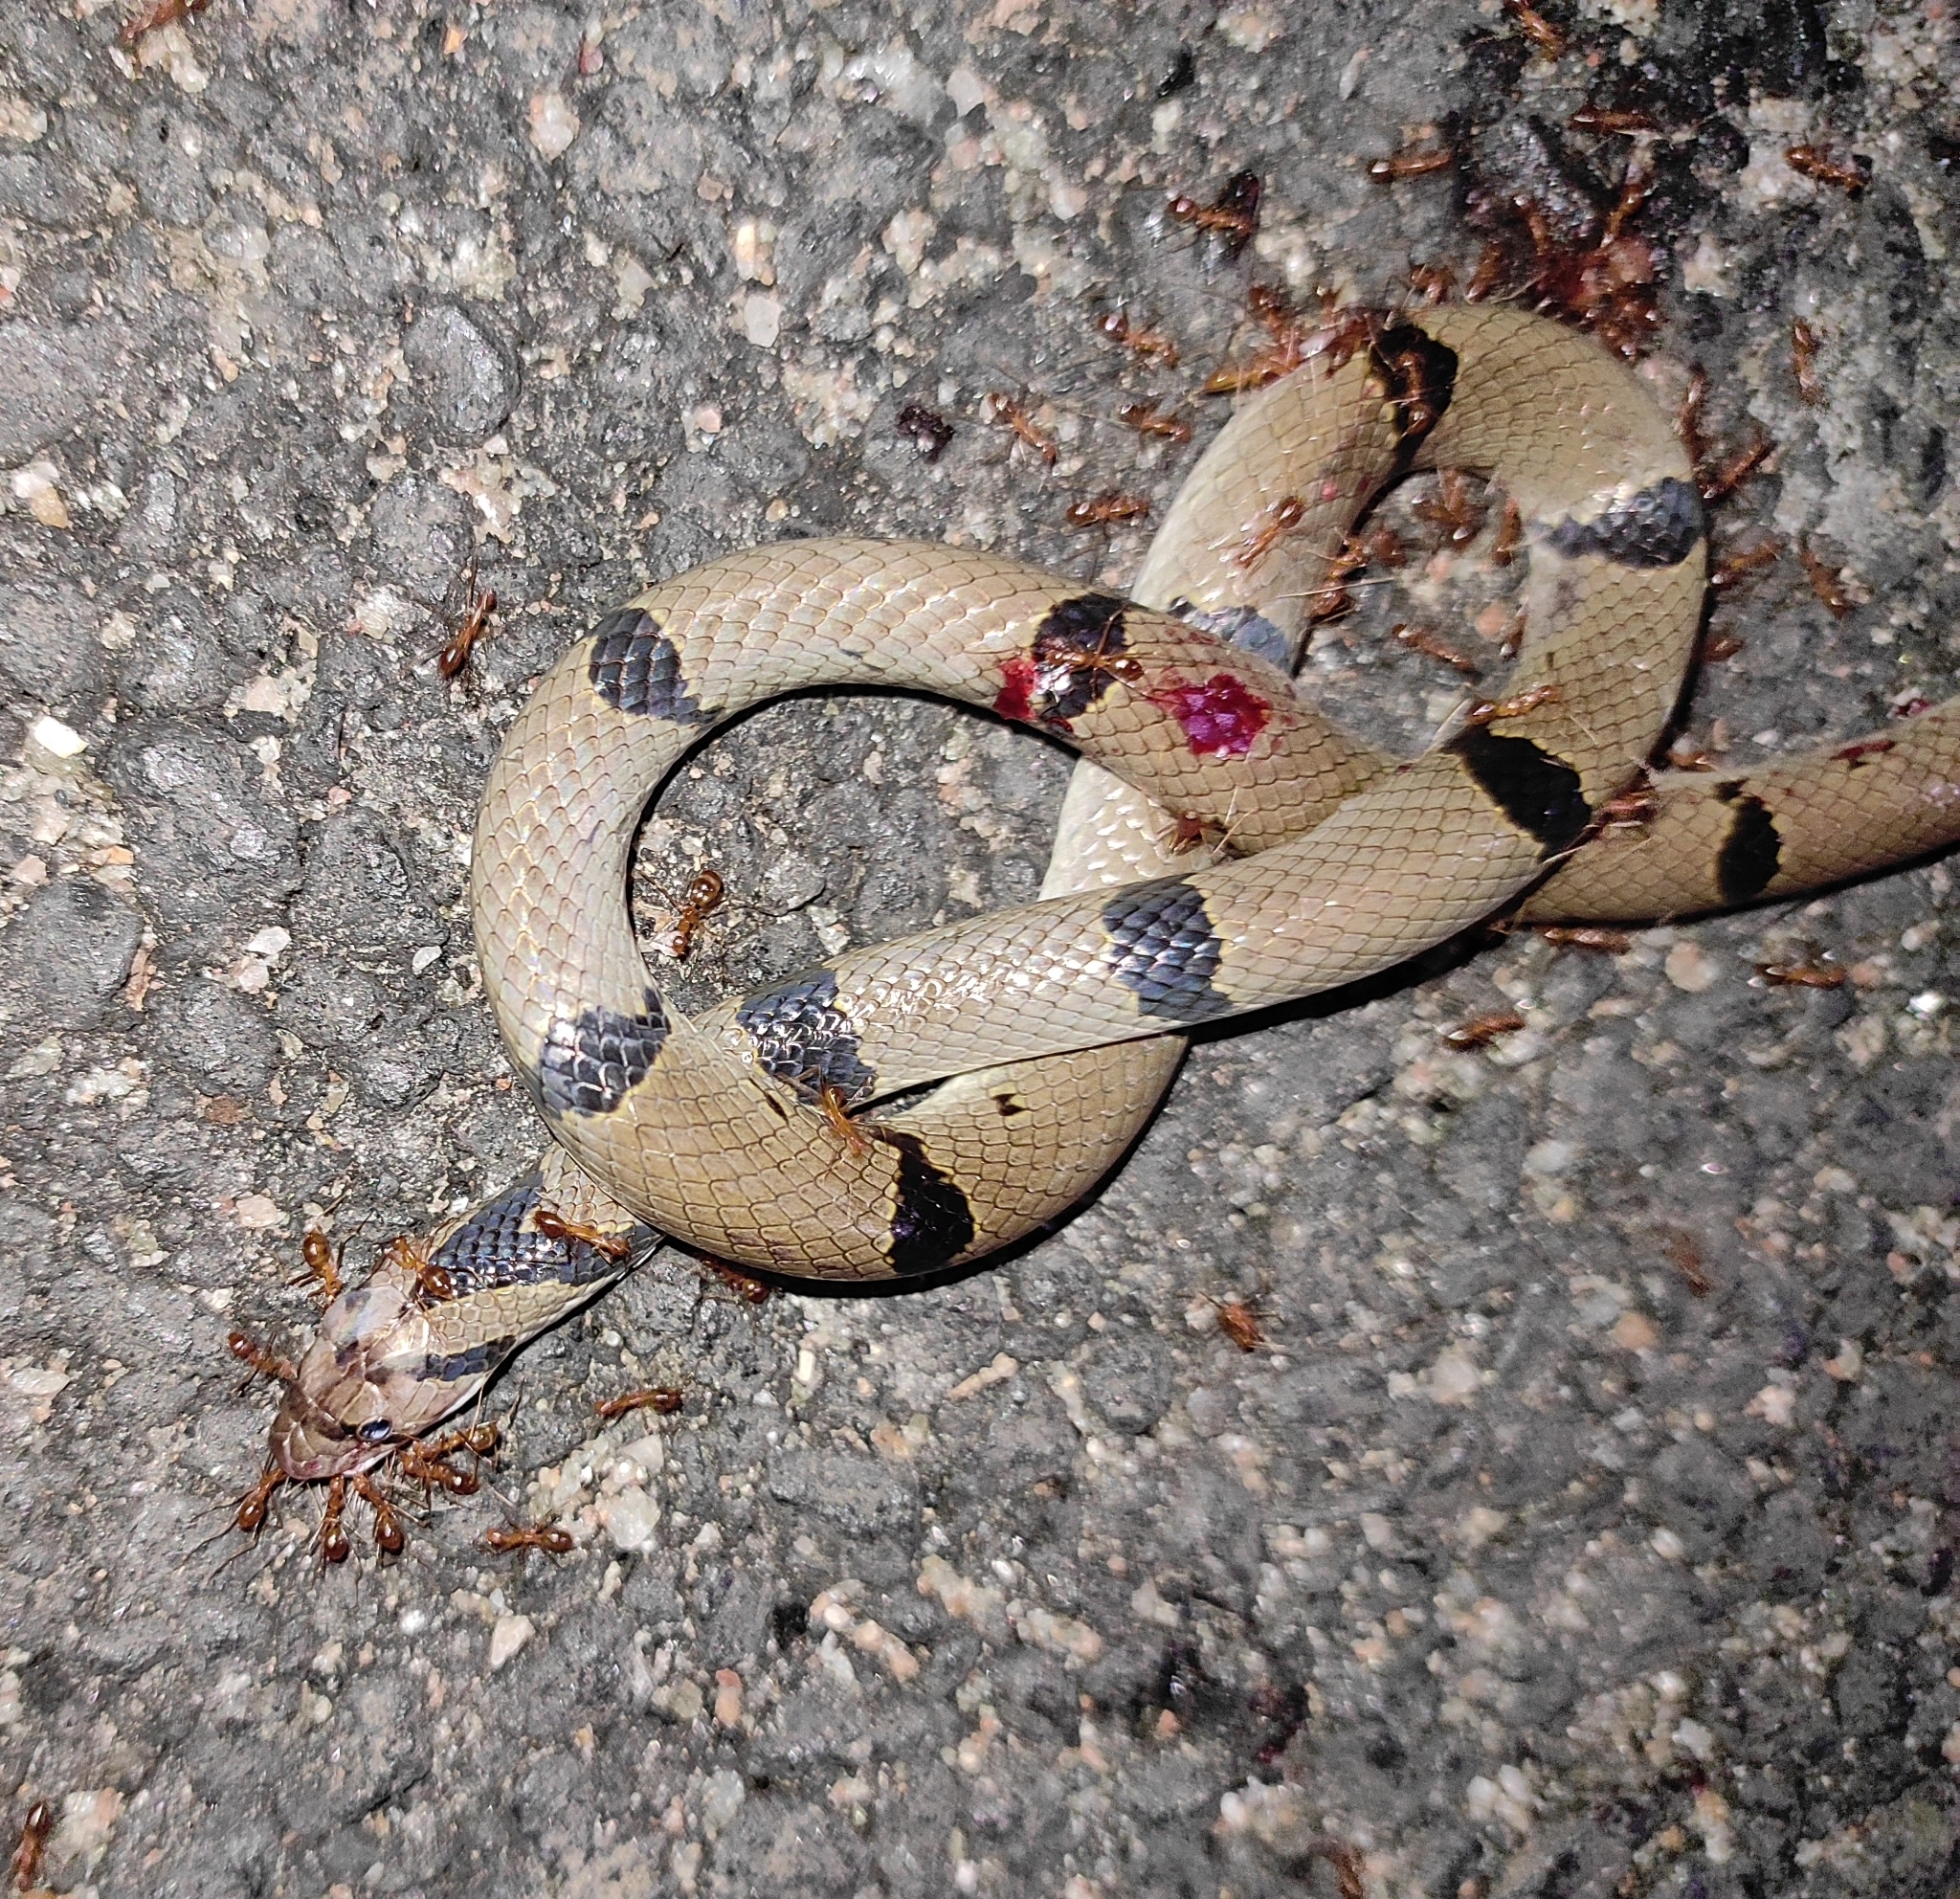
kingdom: Animalia
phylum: Chordata
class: Squamata
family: Colubridae
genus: Oligodon
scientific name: Oligodon arnensis
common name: Banded kukri
